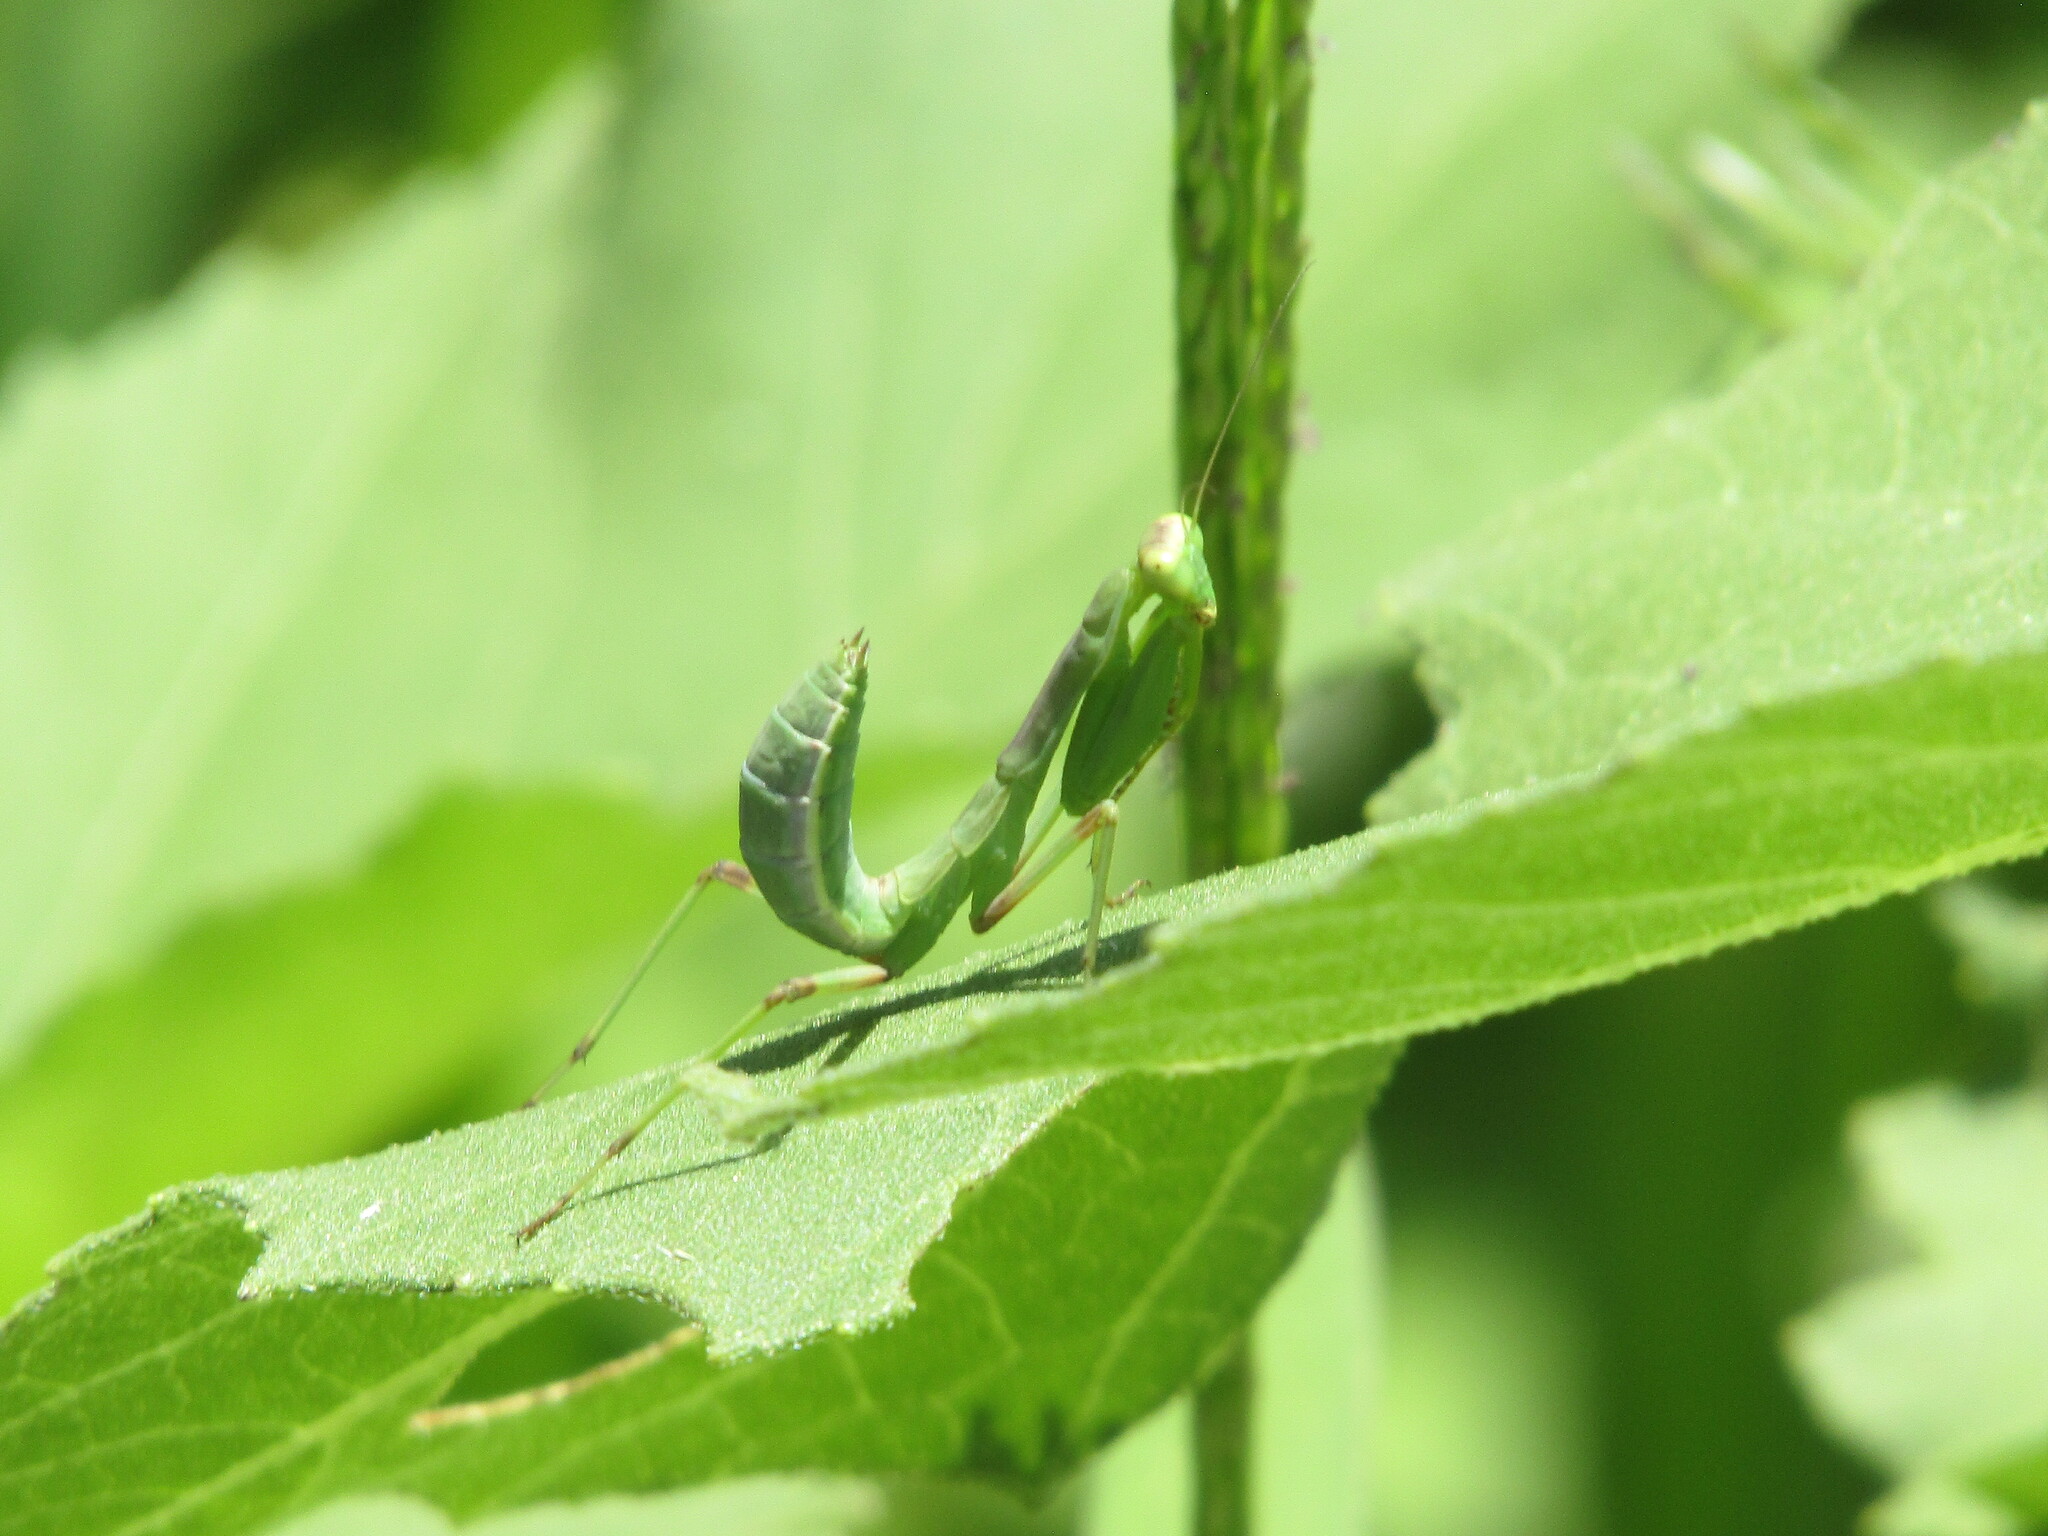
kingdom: Animalia
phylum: Arthropoda
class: Insecta
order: Mantodea
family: Mantidae
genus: Hierodula
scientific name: Hierodula transcaucasica
